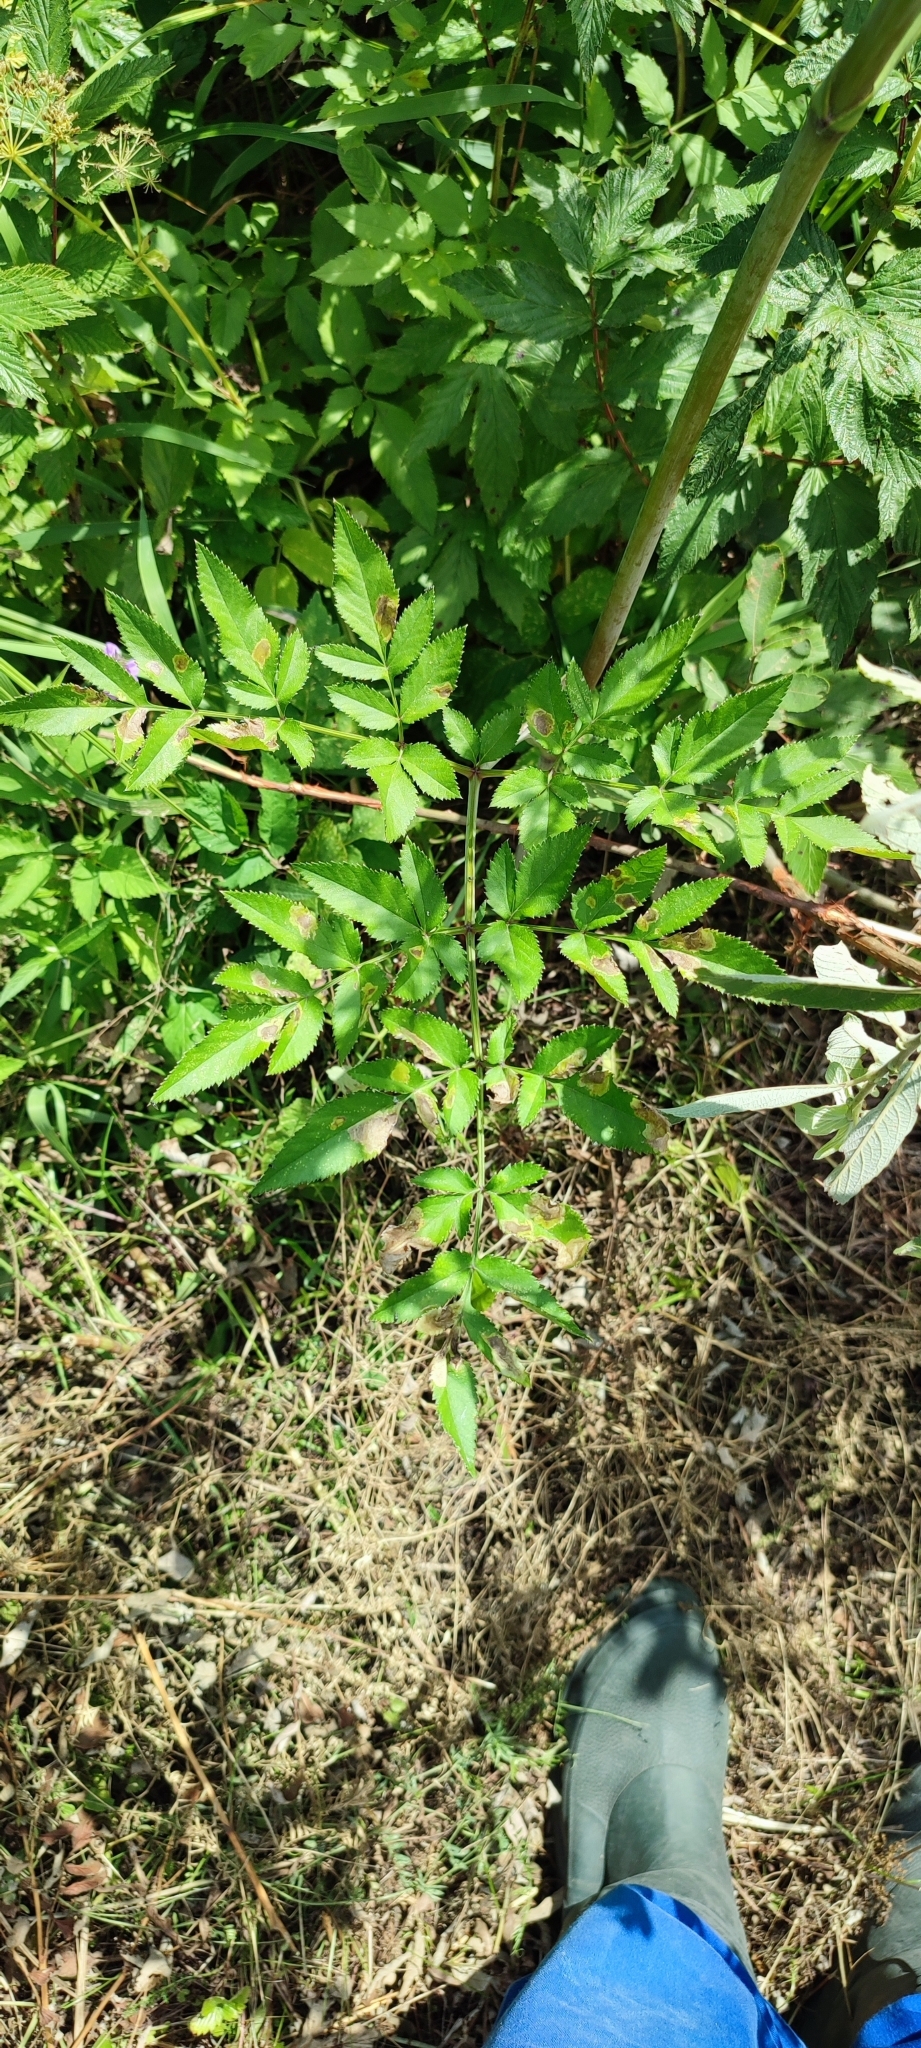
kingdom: Plantae
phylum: Tracheophyta
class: Magnoliopsida
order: Apiales
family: Apiaceae
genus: Angelica
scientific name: Angelica sylvestris
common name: Wild angelica
